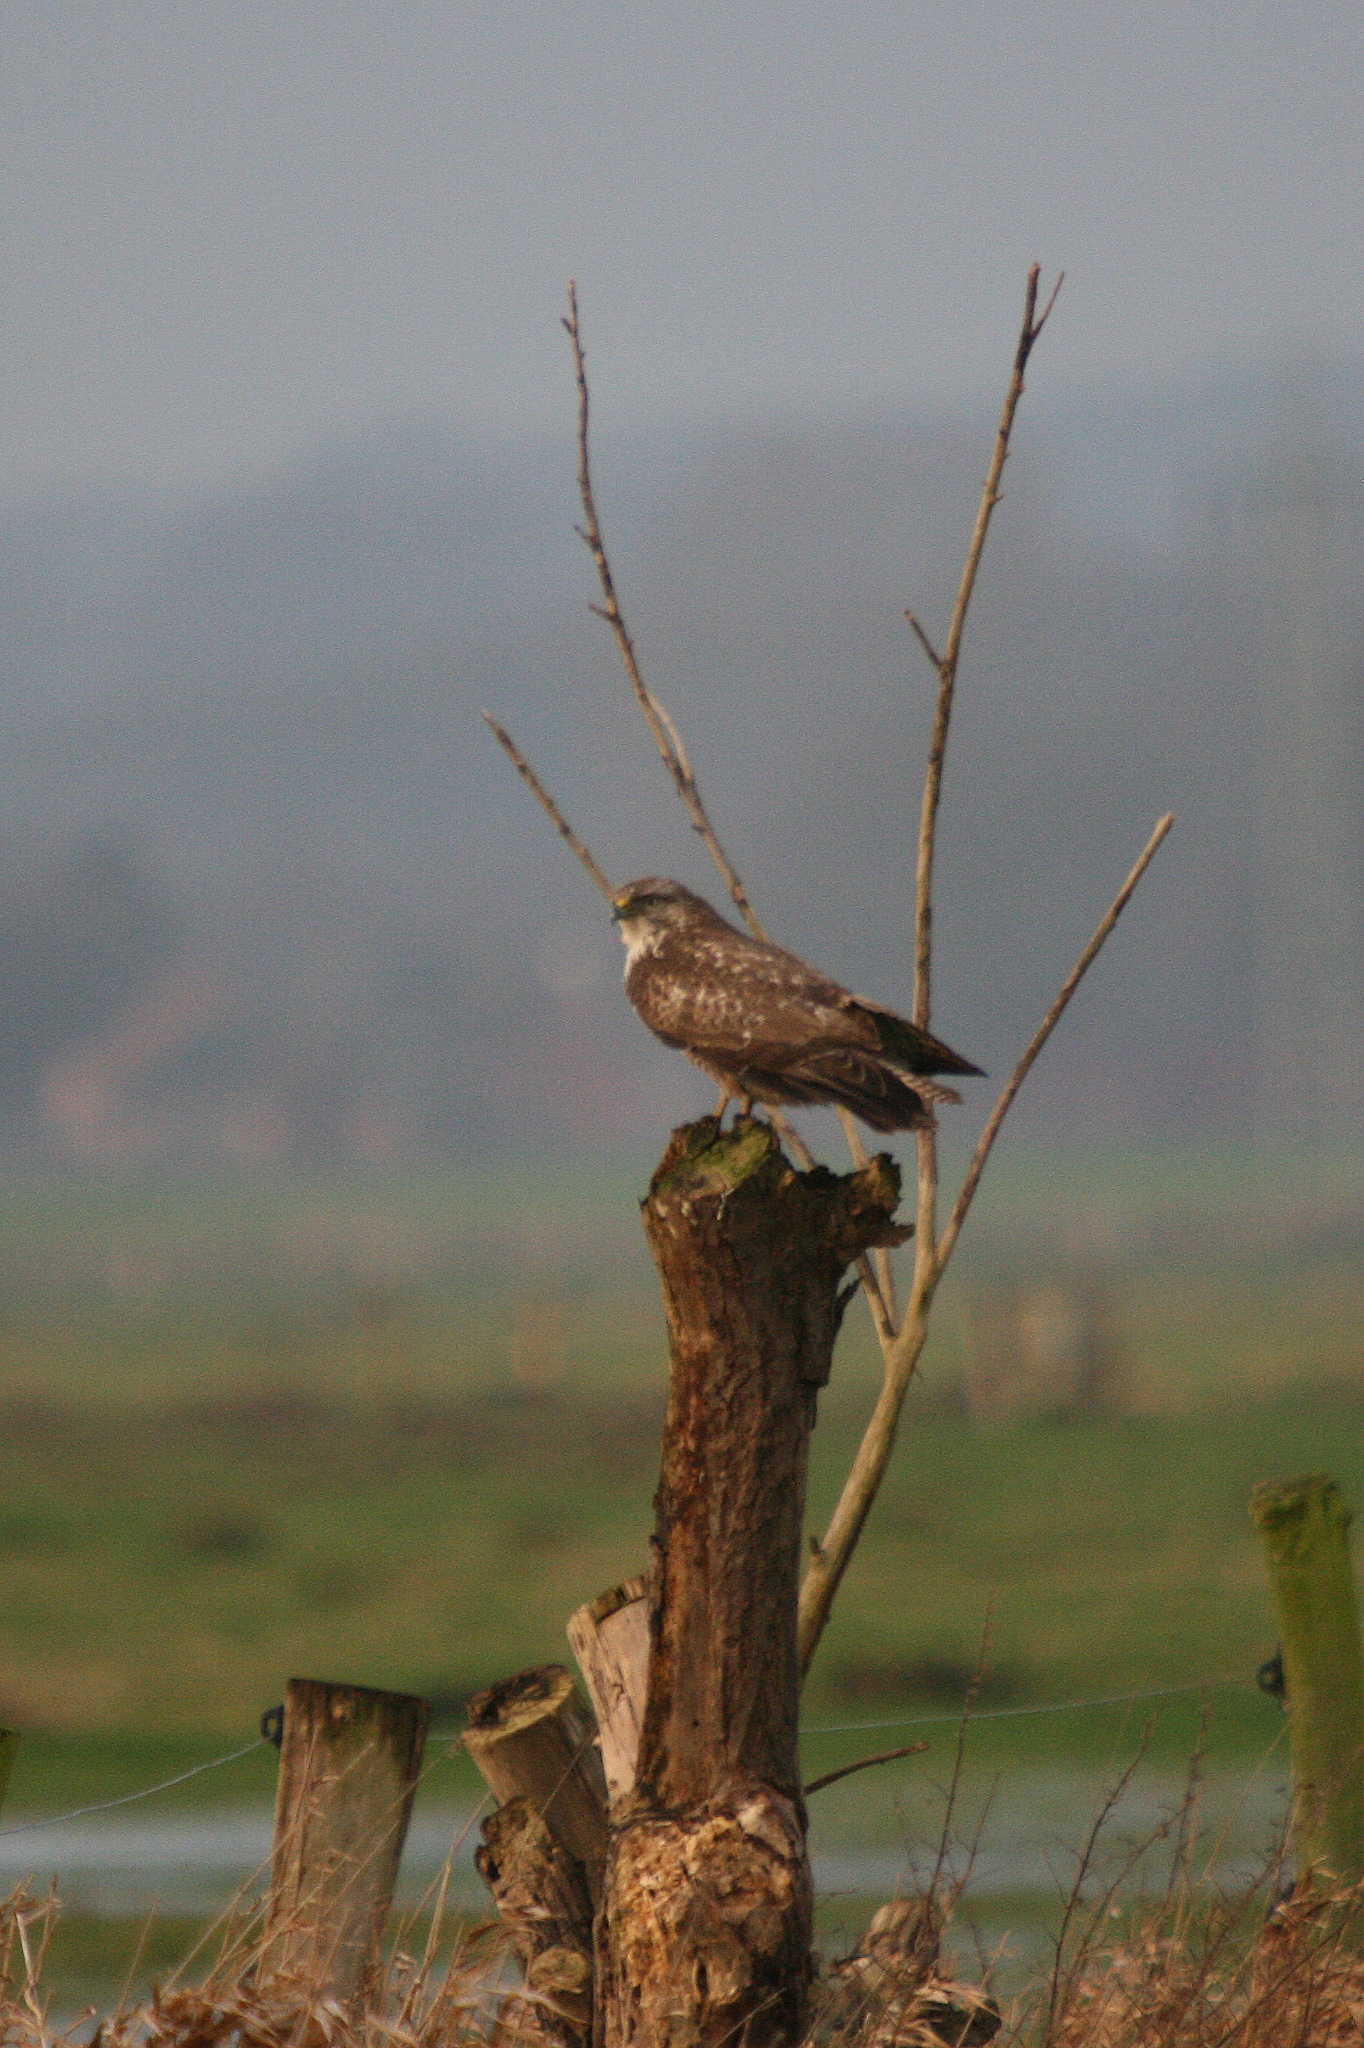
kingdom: Animalia
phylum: Chordata
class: Aves
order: Accipitriformes
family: Accipitridae
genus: Buteo
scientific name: Buteo buteo
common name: Common buzzard
